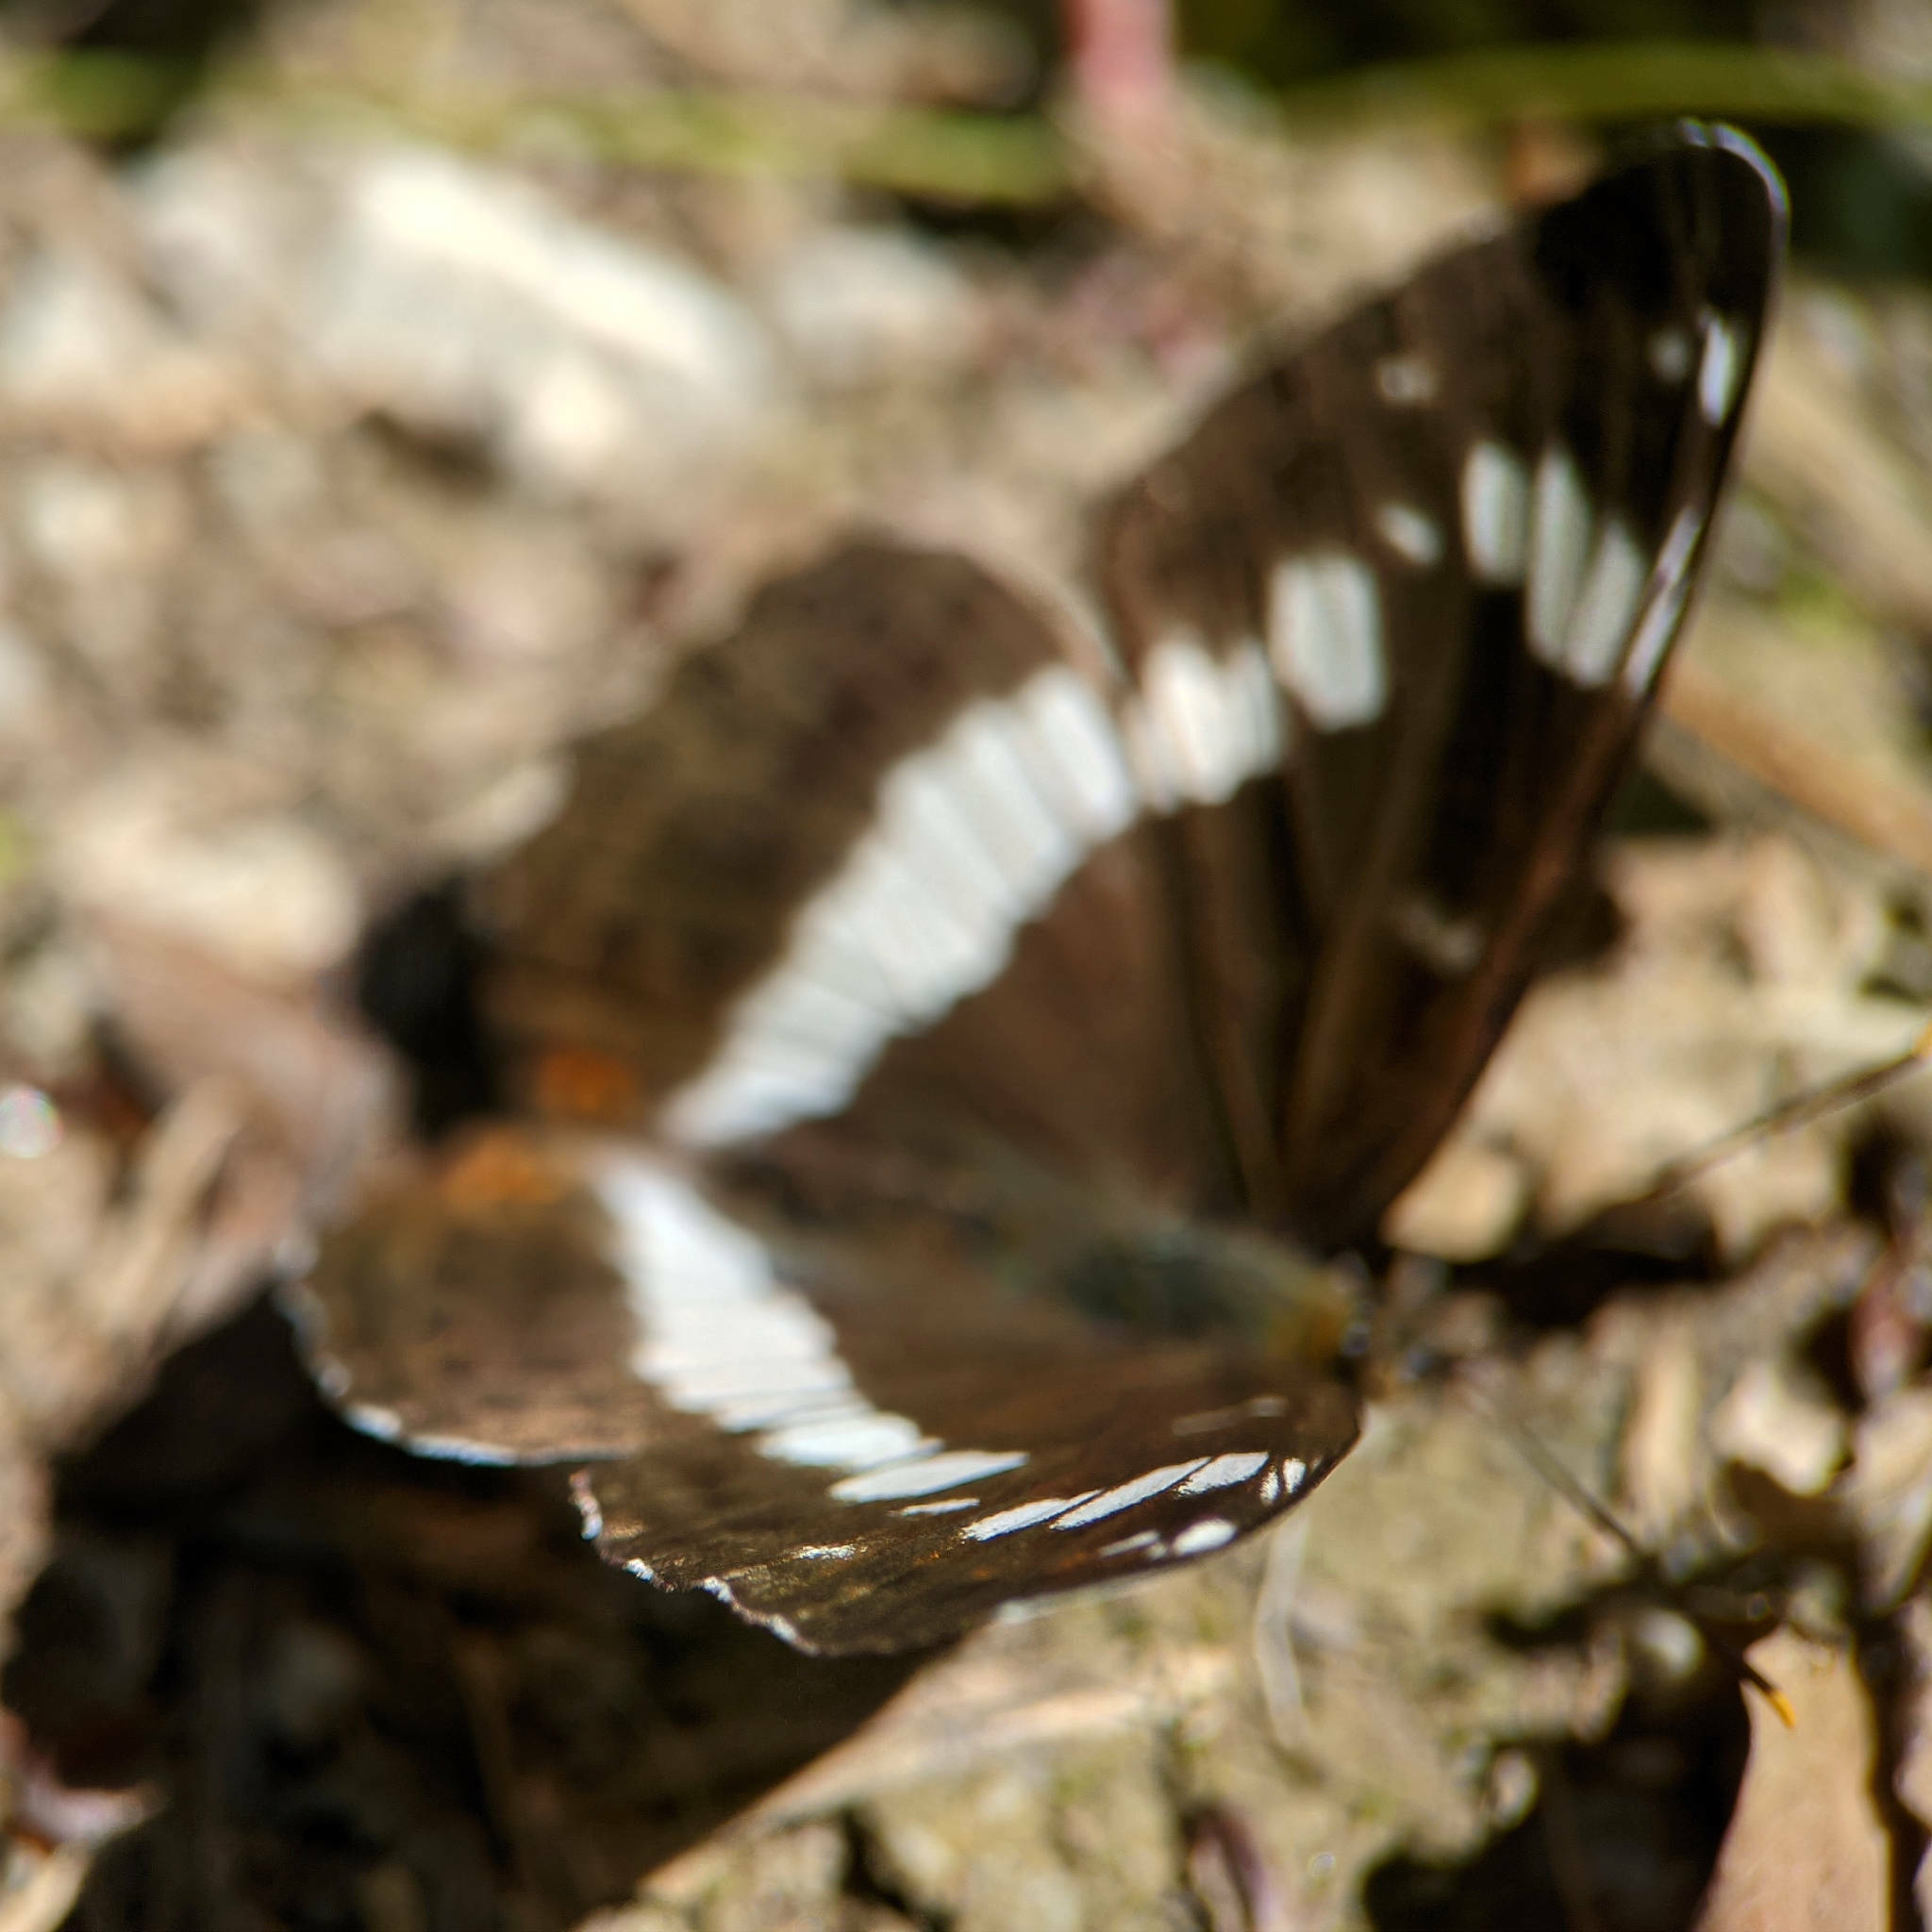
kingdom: Animalia
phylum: Arthropoda
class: Insecta
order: Lepidoptera
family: Nymphalidae
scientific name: Nymphalidae
